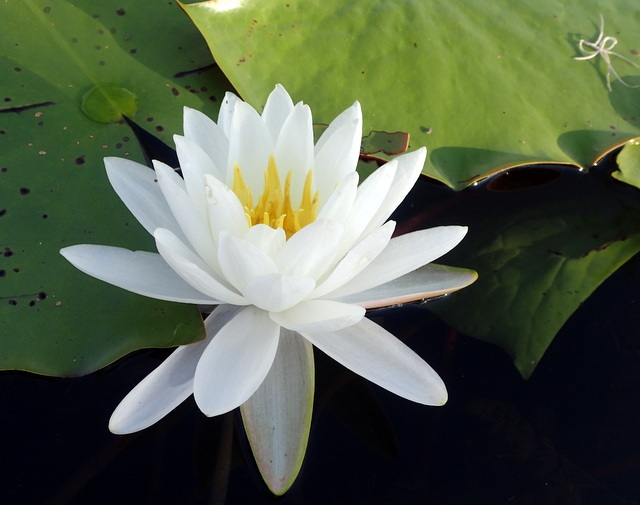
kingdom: Plantae
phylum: Tracheophyta
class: Magnoliopsida
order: Nymphaeales
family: Nymphaeaceae
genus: Nymphaea
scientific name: Nymphaea odorata
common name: Fragrant water-lily
